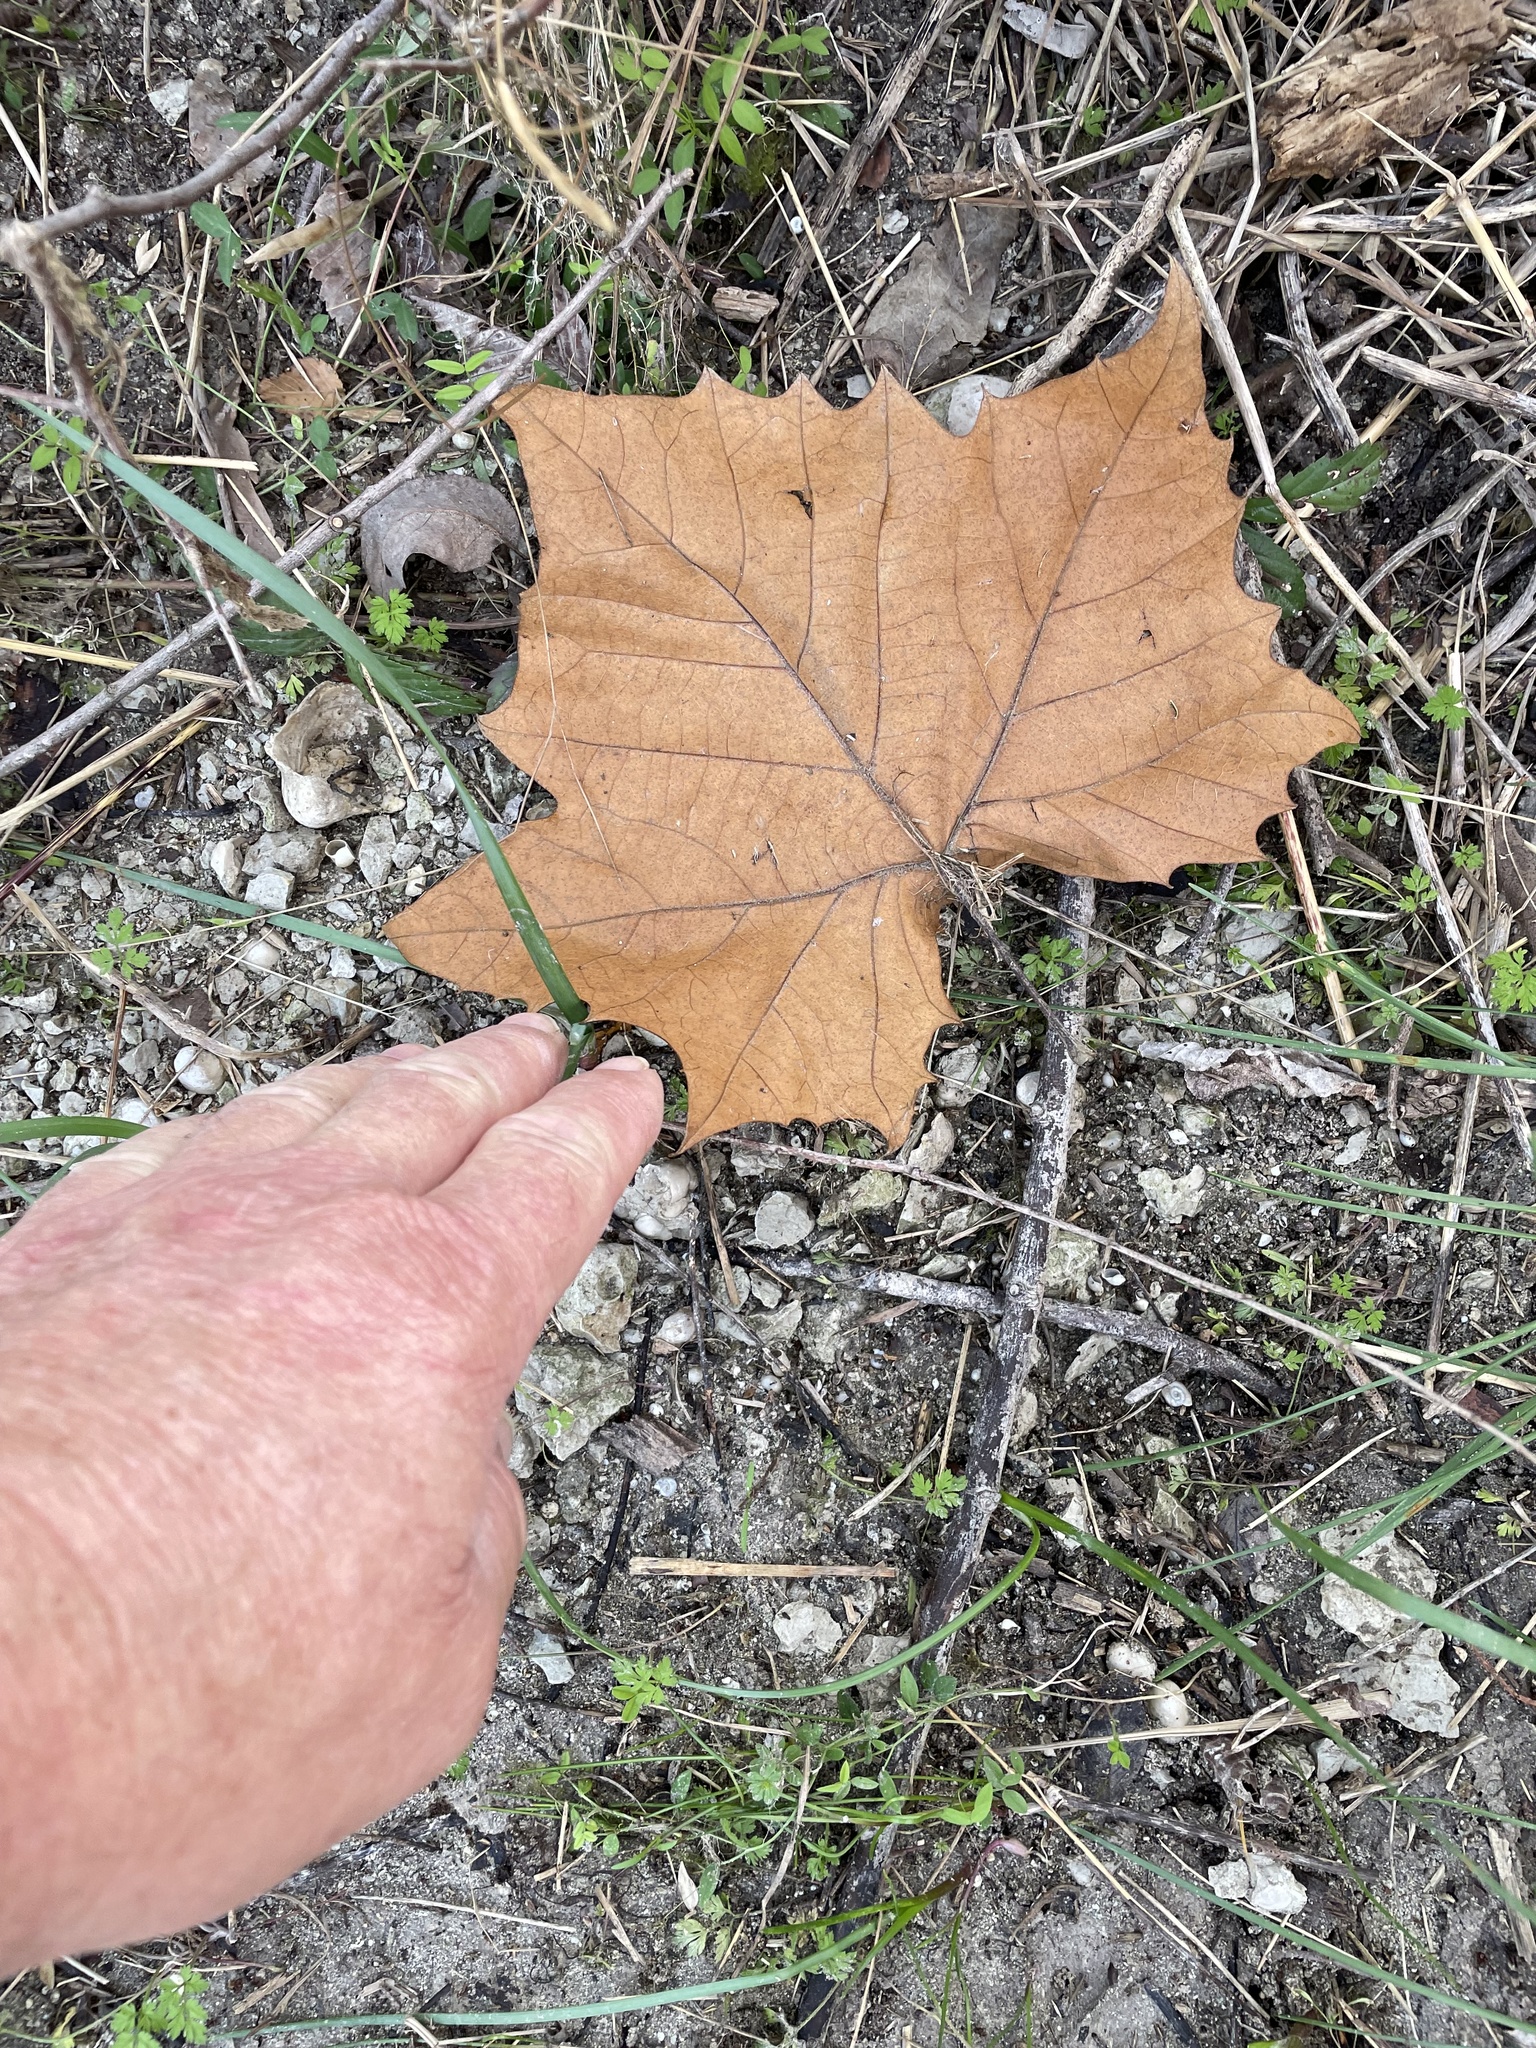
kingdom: Plantae
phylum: Tracheophyta
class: Magnoliopsida
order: Proteales
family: Platanaceae
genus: Platanus
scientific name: Platanus occidentalis
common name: American sycamore
